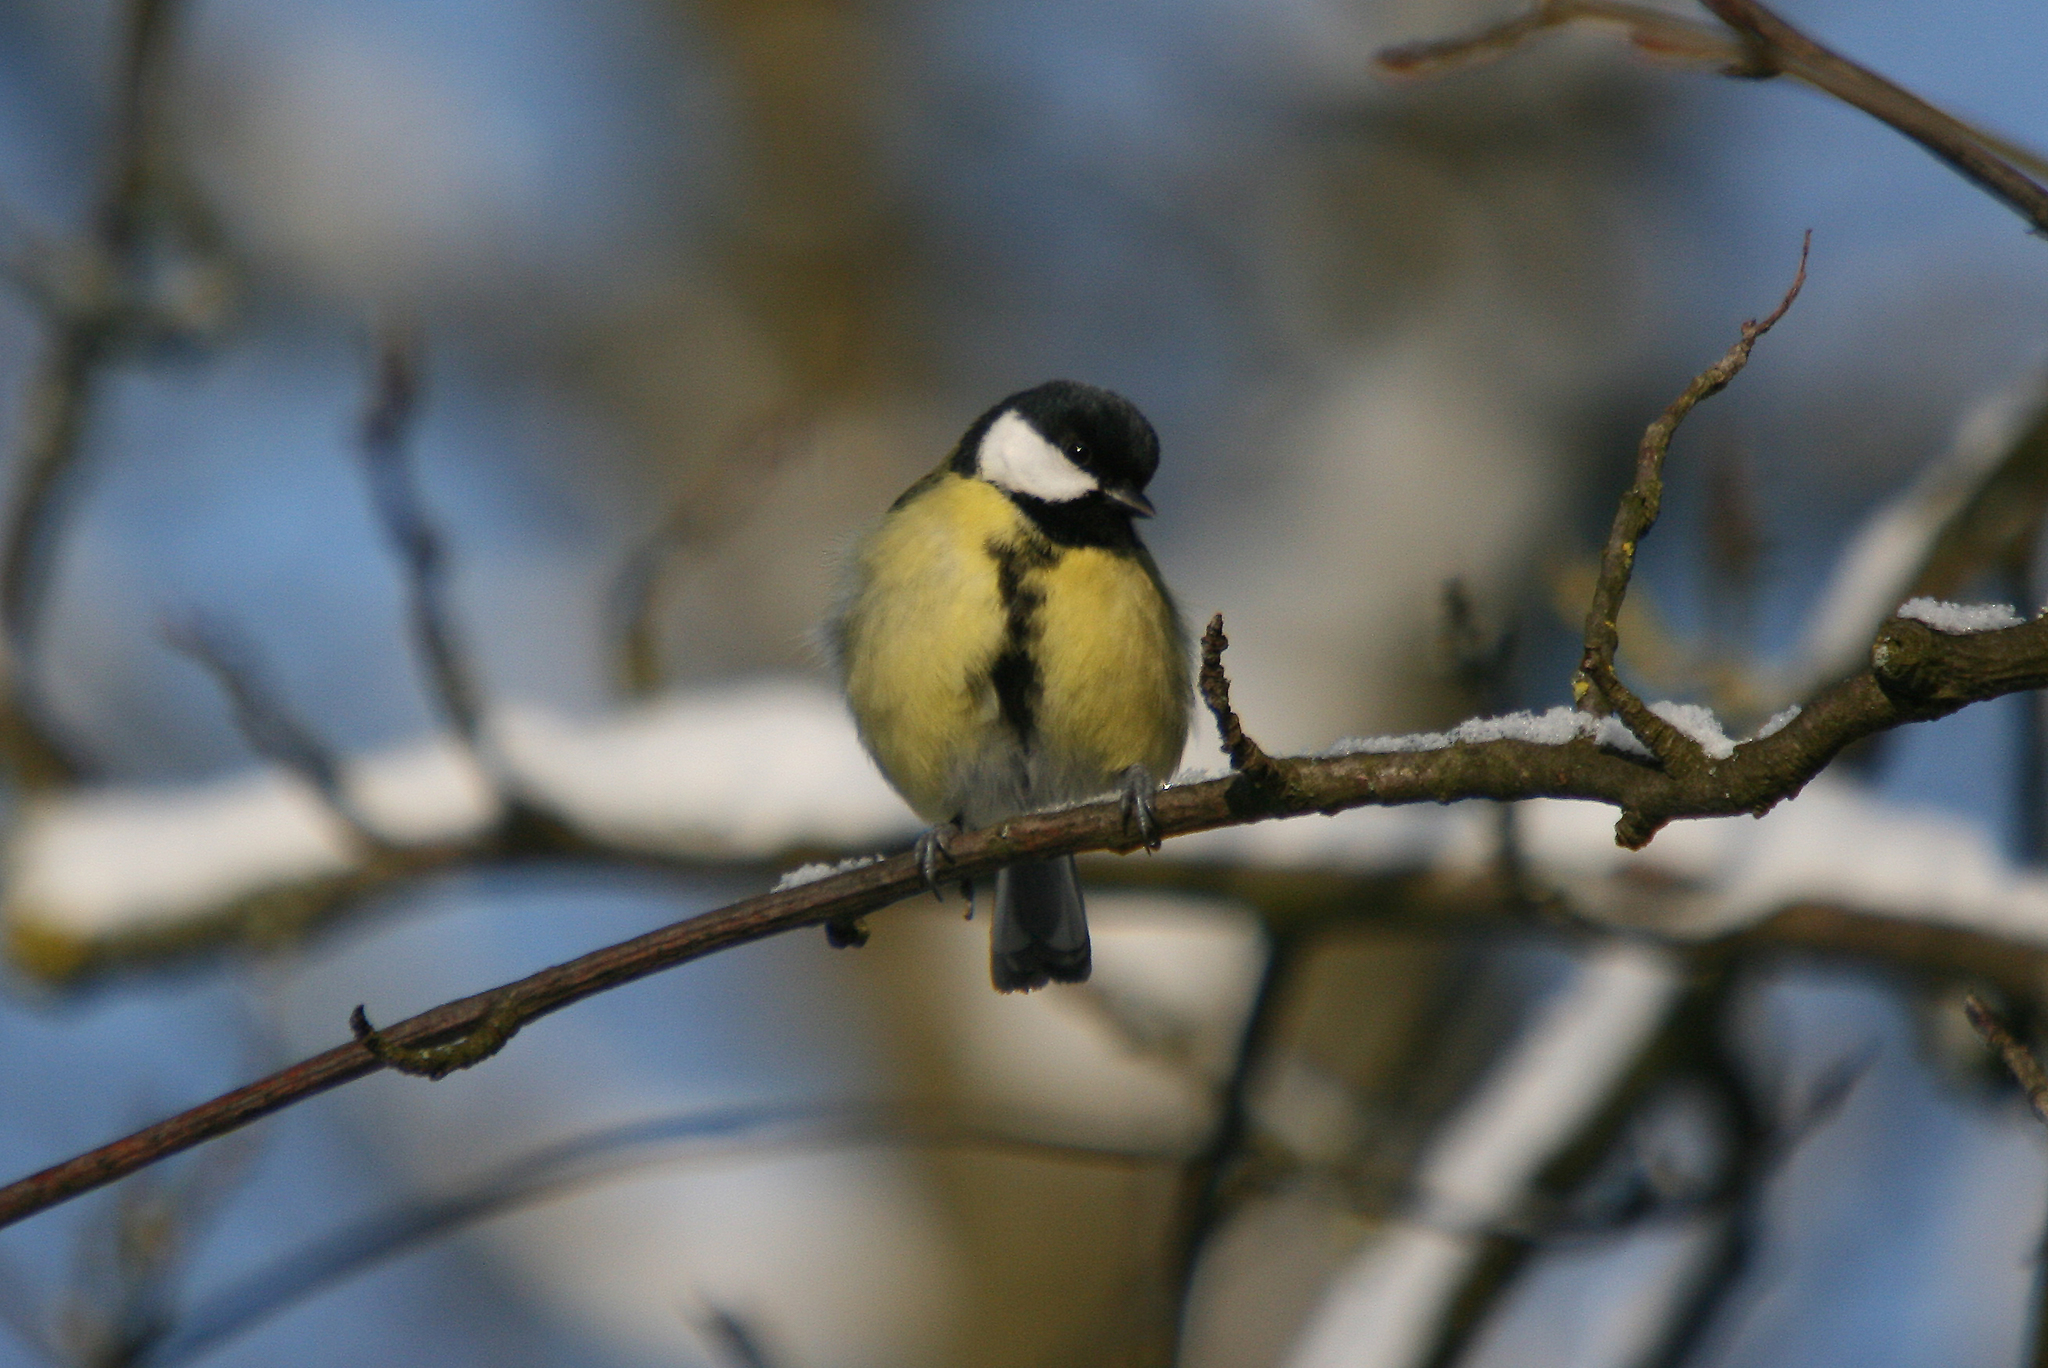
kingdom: Animalia
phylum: Chordata
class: Aves
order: Passeriformes
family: Paridae
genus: Parus
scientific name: Parus major
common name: Great tit
